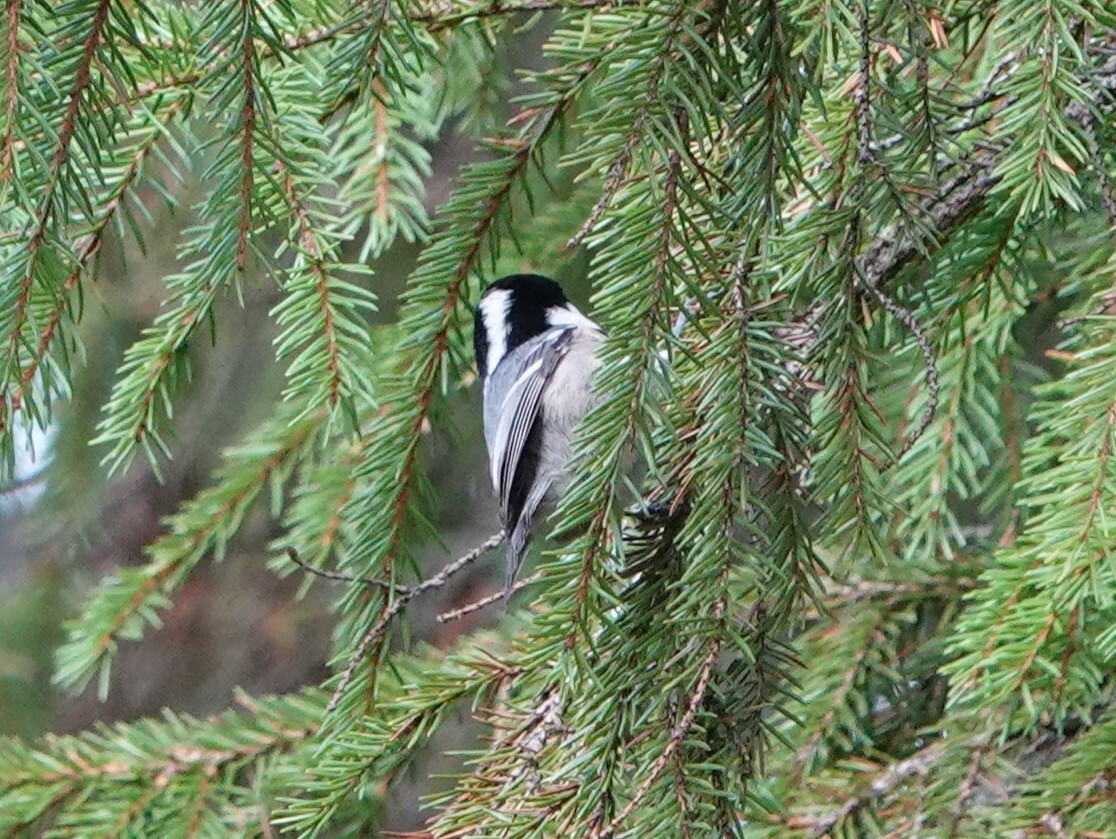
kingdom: Animalia
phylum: Chordata
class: Aves
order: Passeriformes
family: Paridae
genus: Periparus
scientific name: Periparus ater
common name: Coal tit
